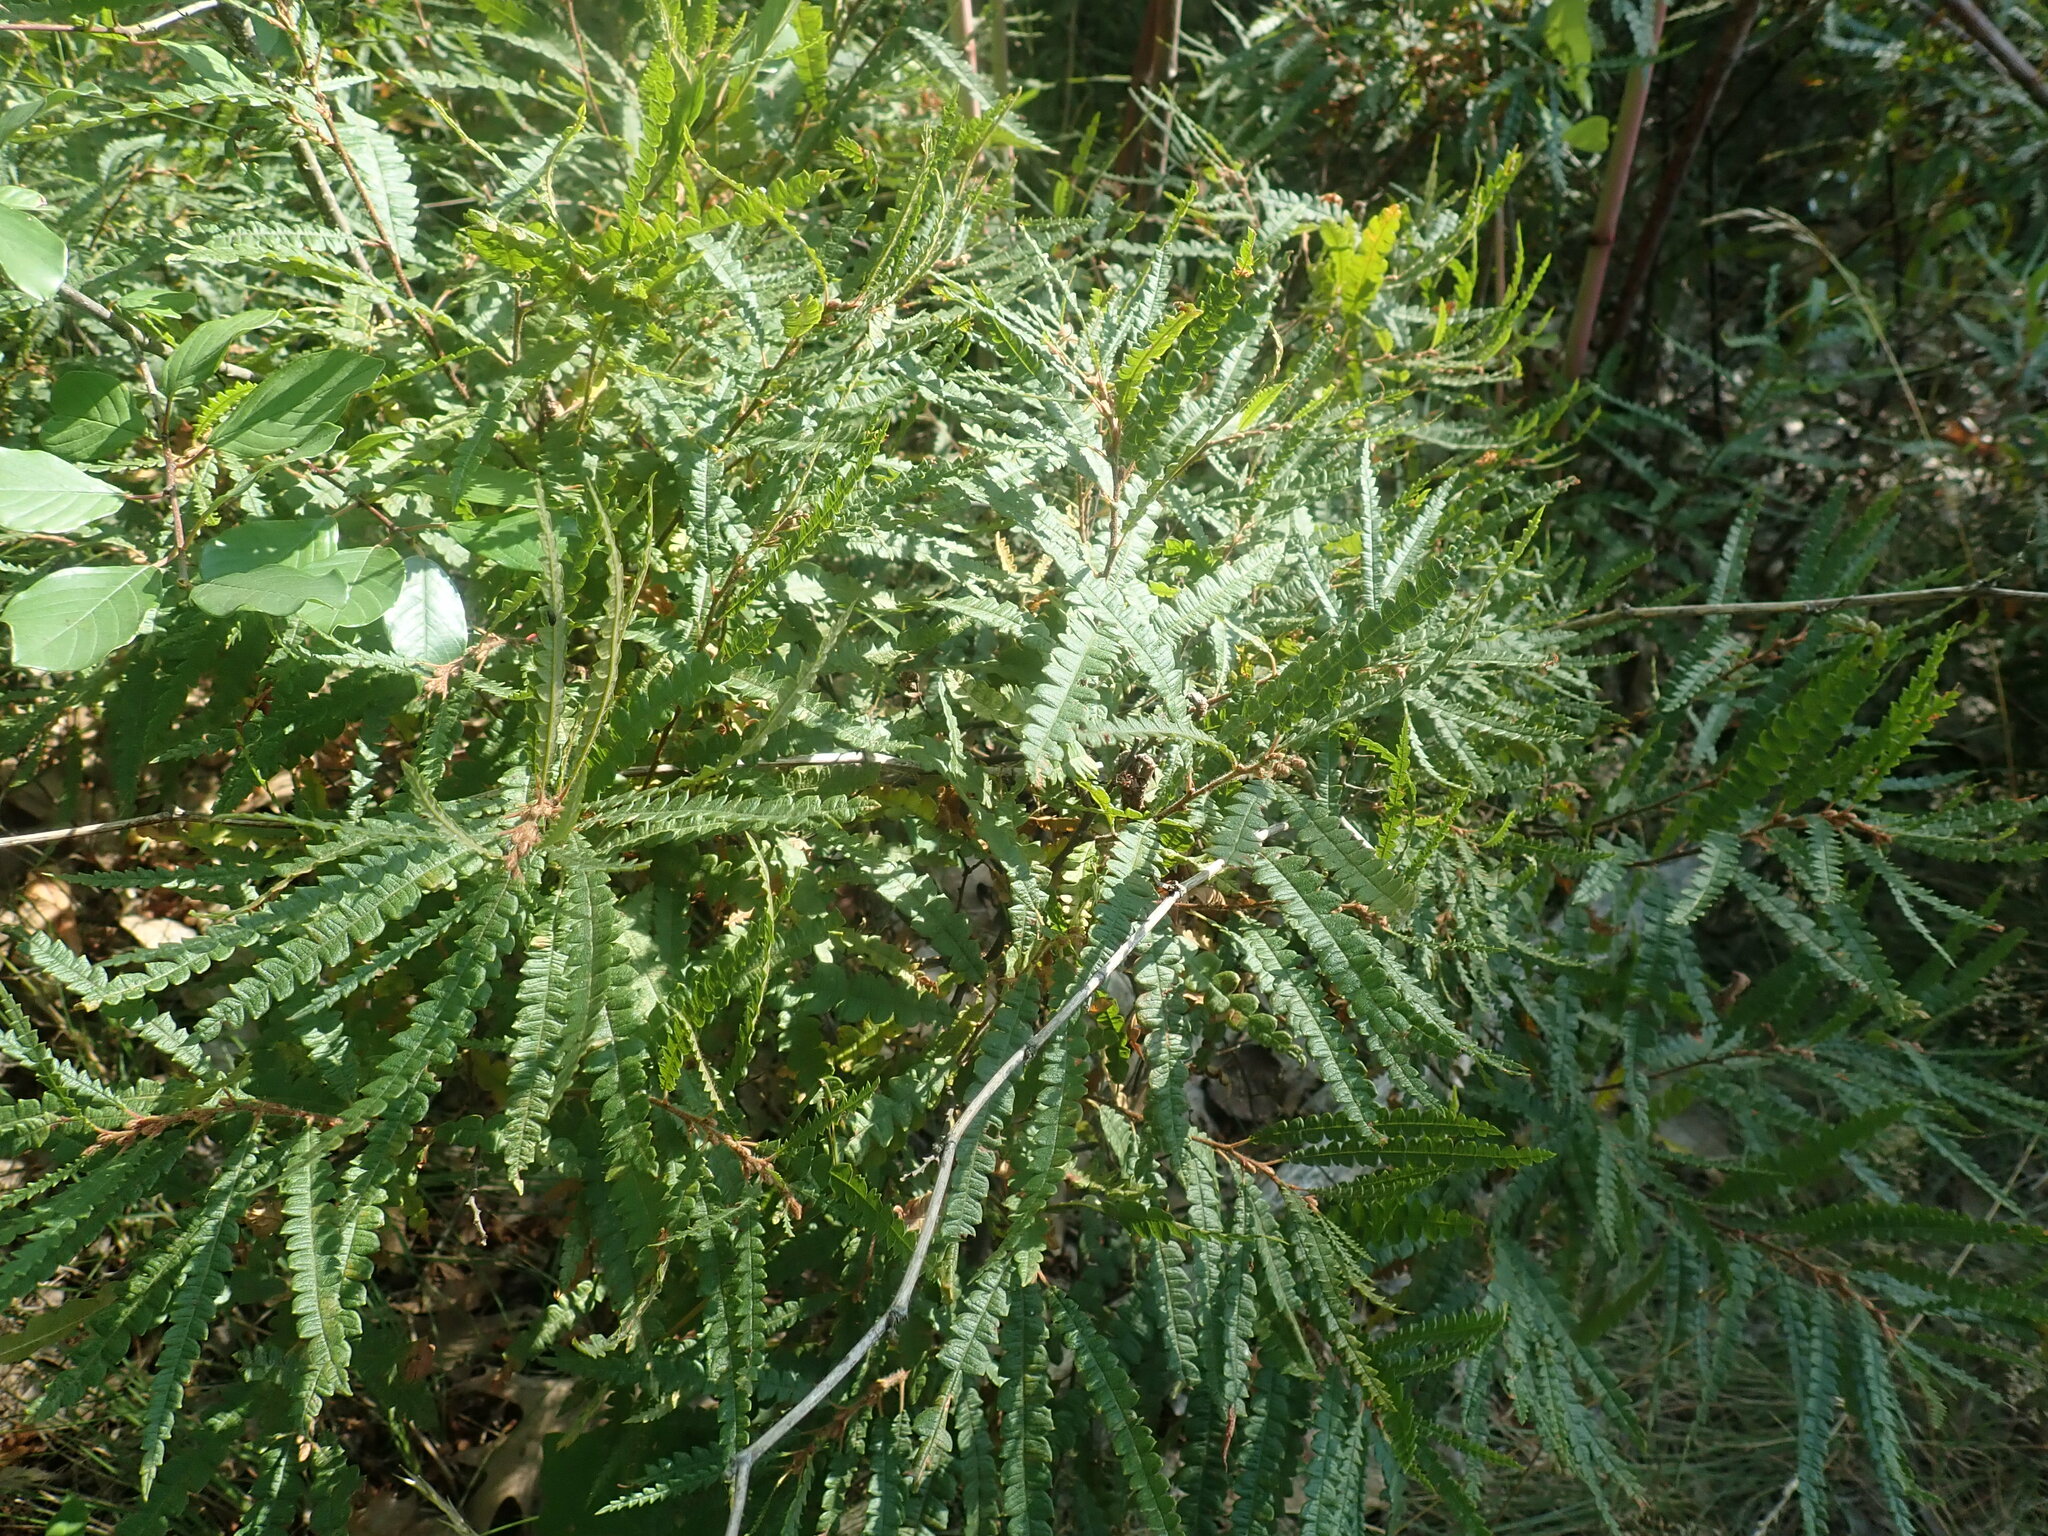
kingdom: Plantae
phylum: Tracheophyta
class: Magnoliopsida
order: Fagales
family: Myricaceae
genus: Comptonia
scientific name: Comptonia peregrina
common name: Sweet-fern
